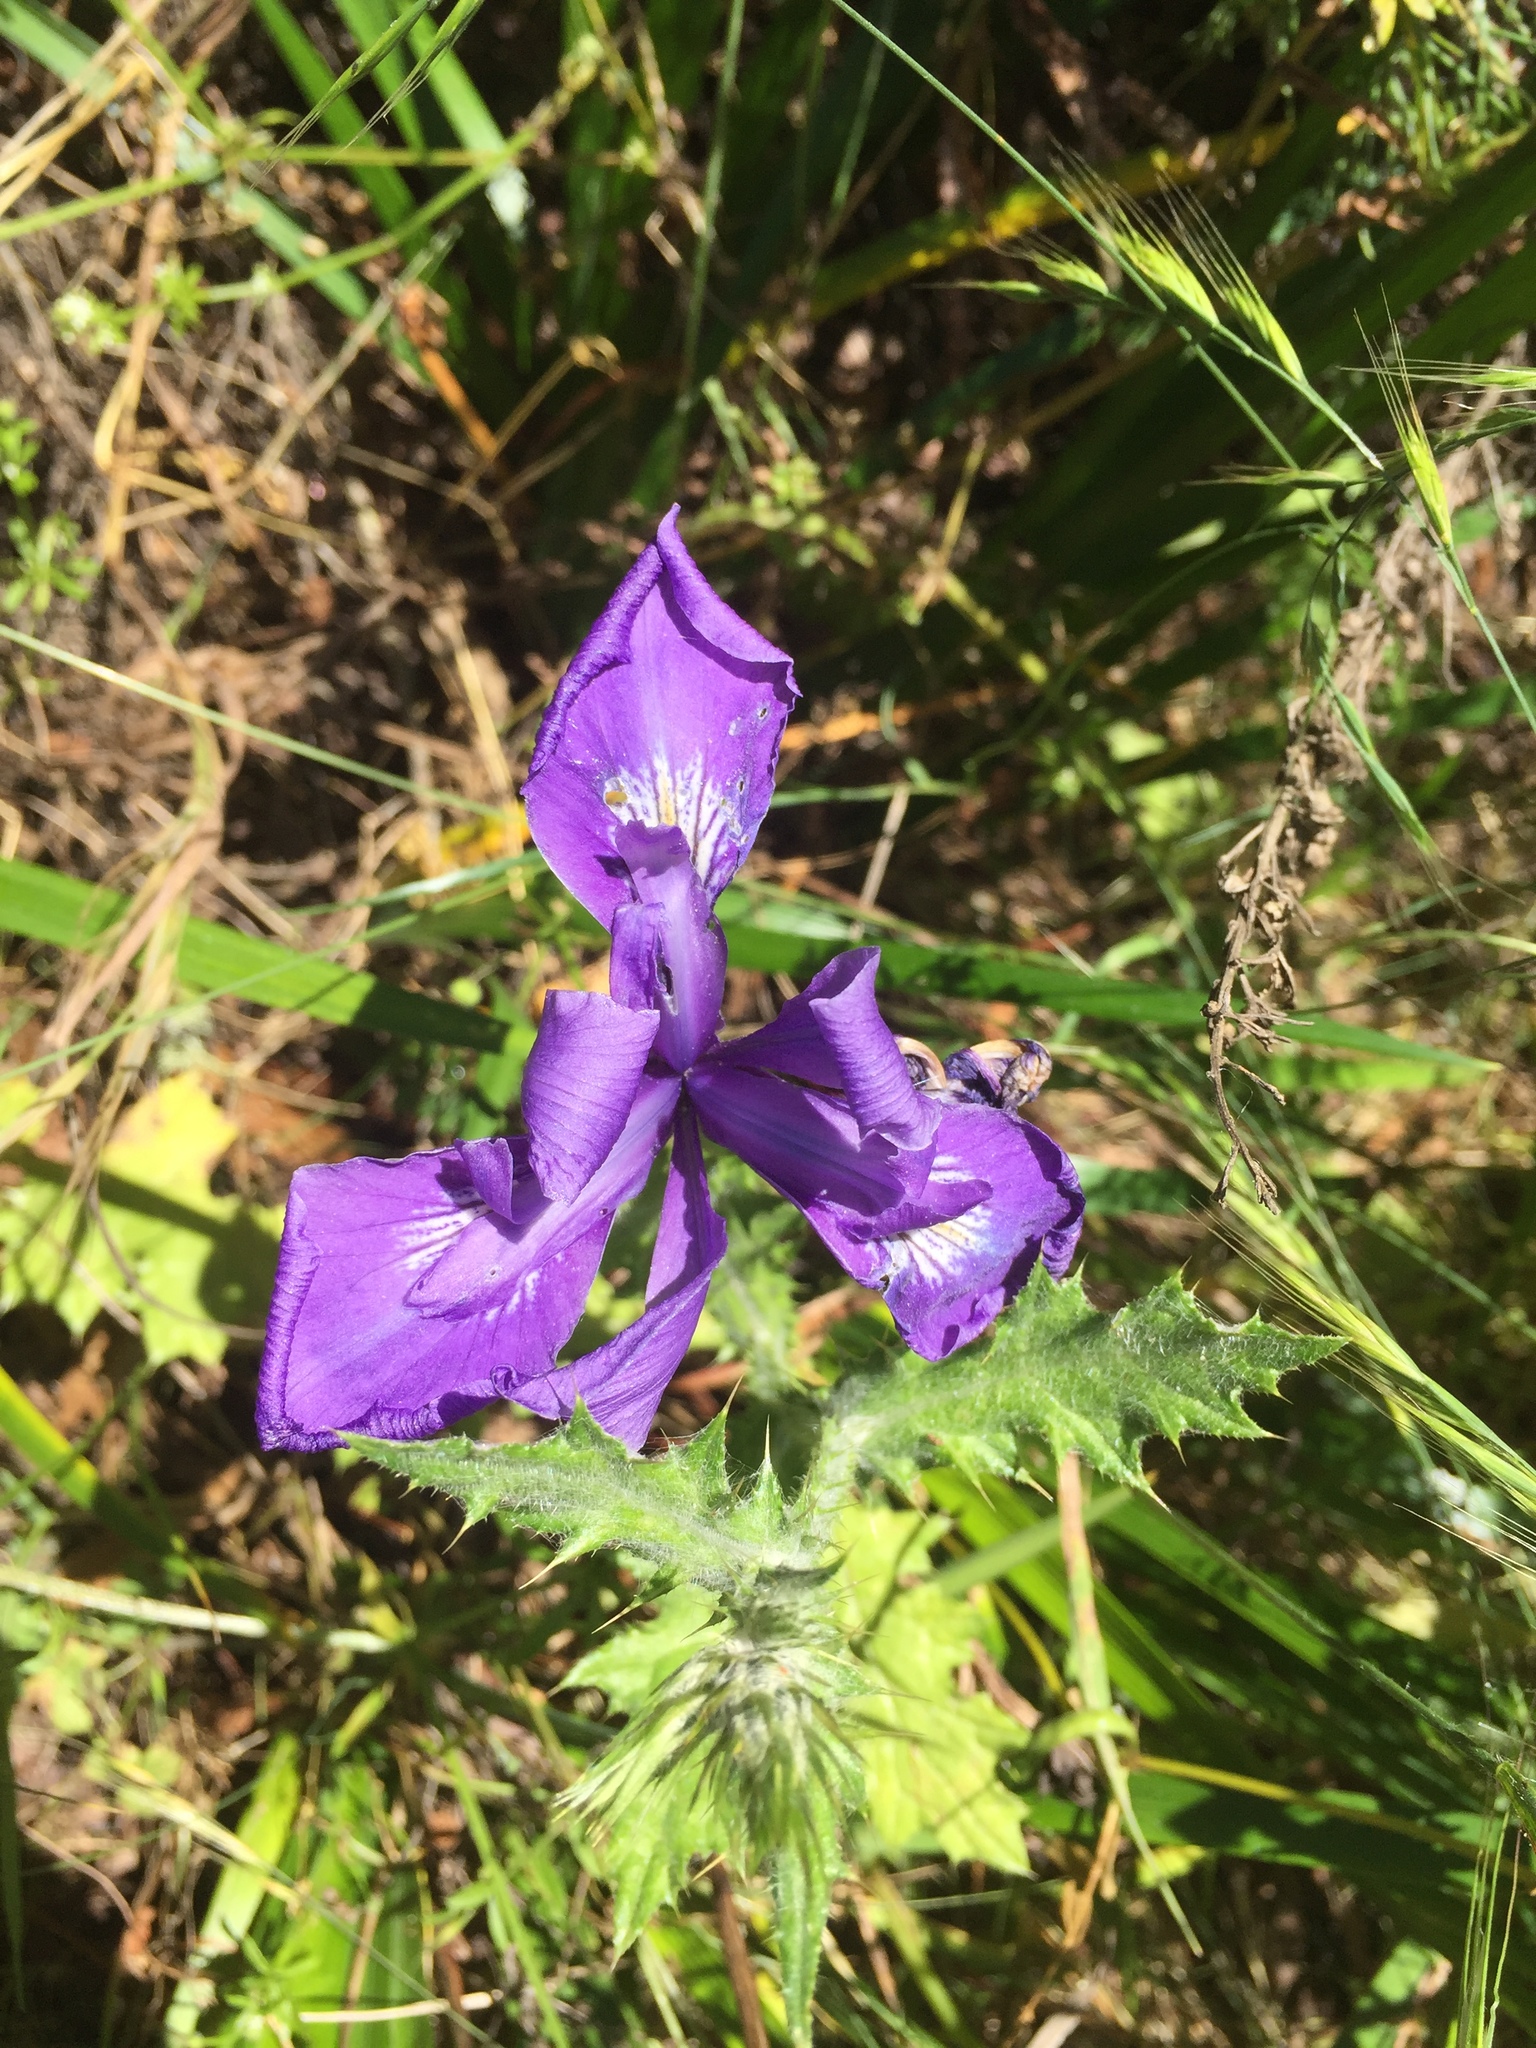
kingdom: Plantae
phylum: Tracheophyta
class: Liliopsida
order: Asparagales
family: Iridaceae
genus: Iris
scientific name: Iris douglasiana
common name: Marin iris
